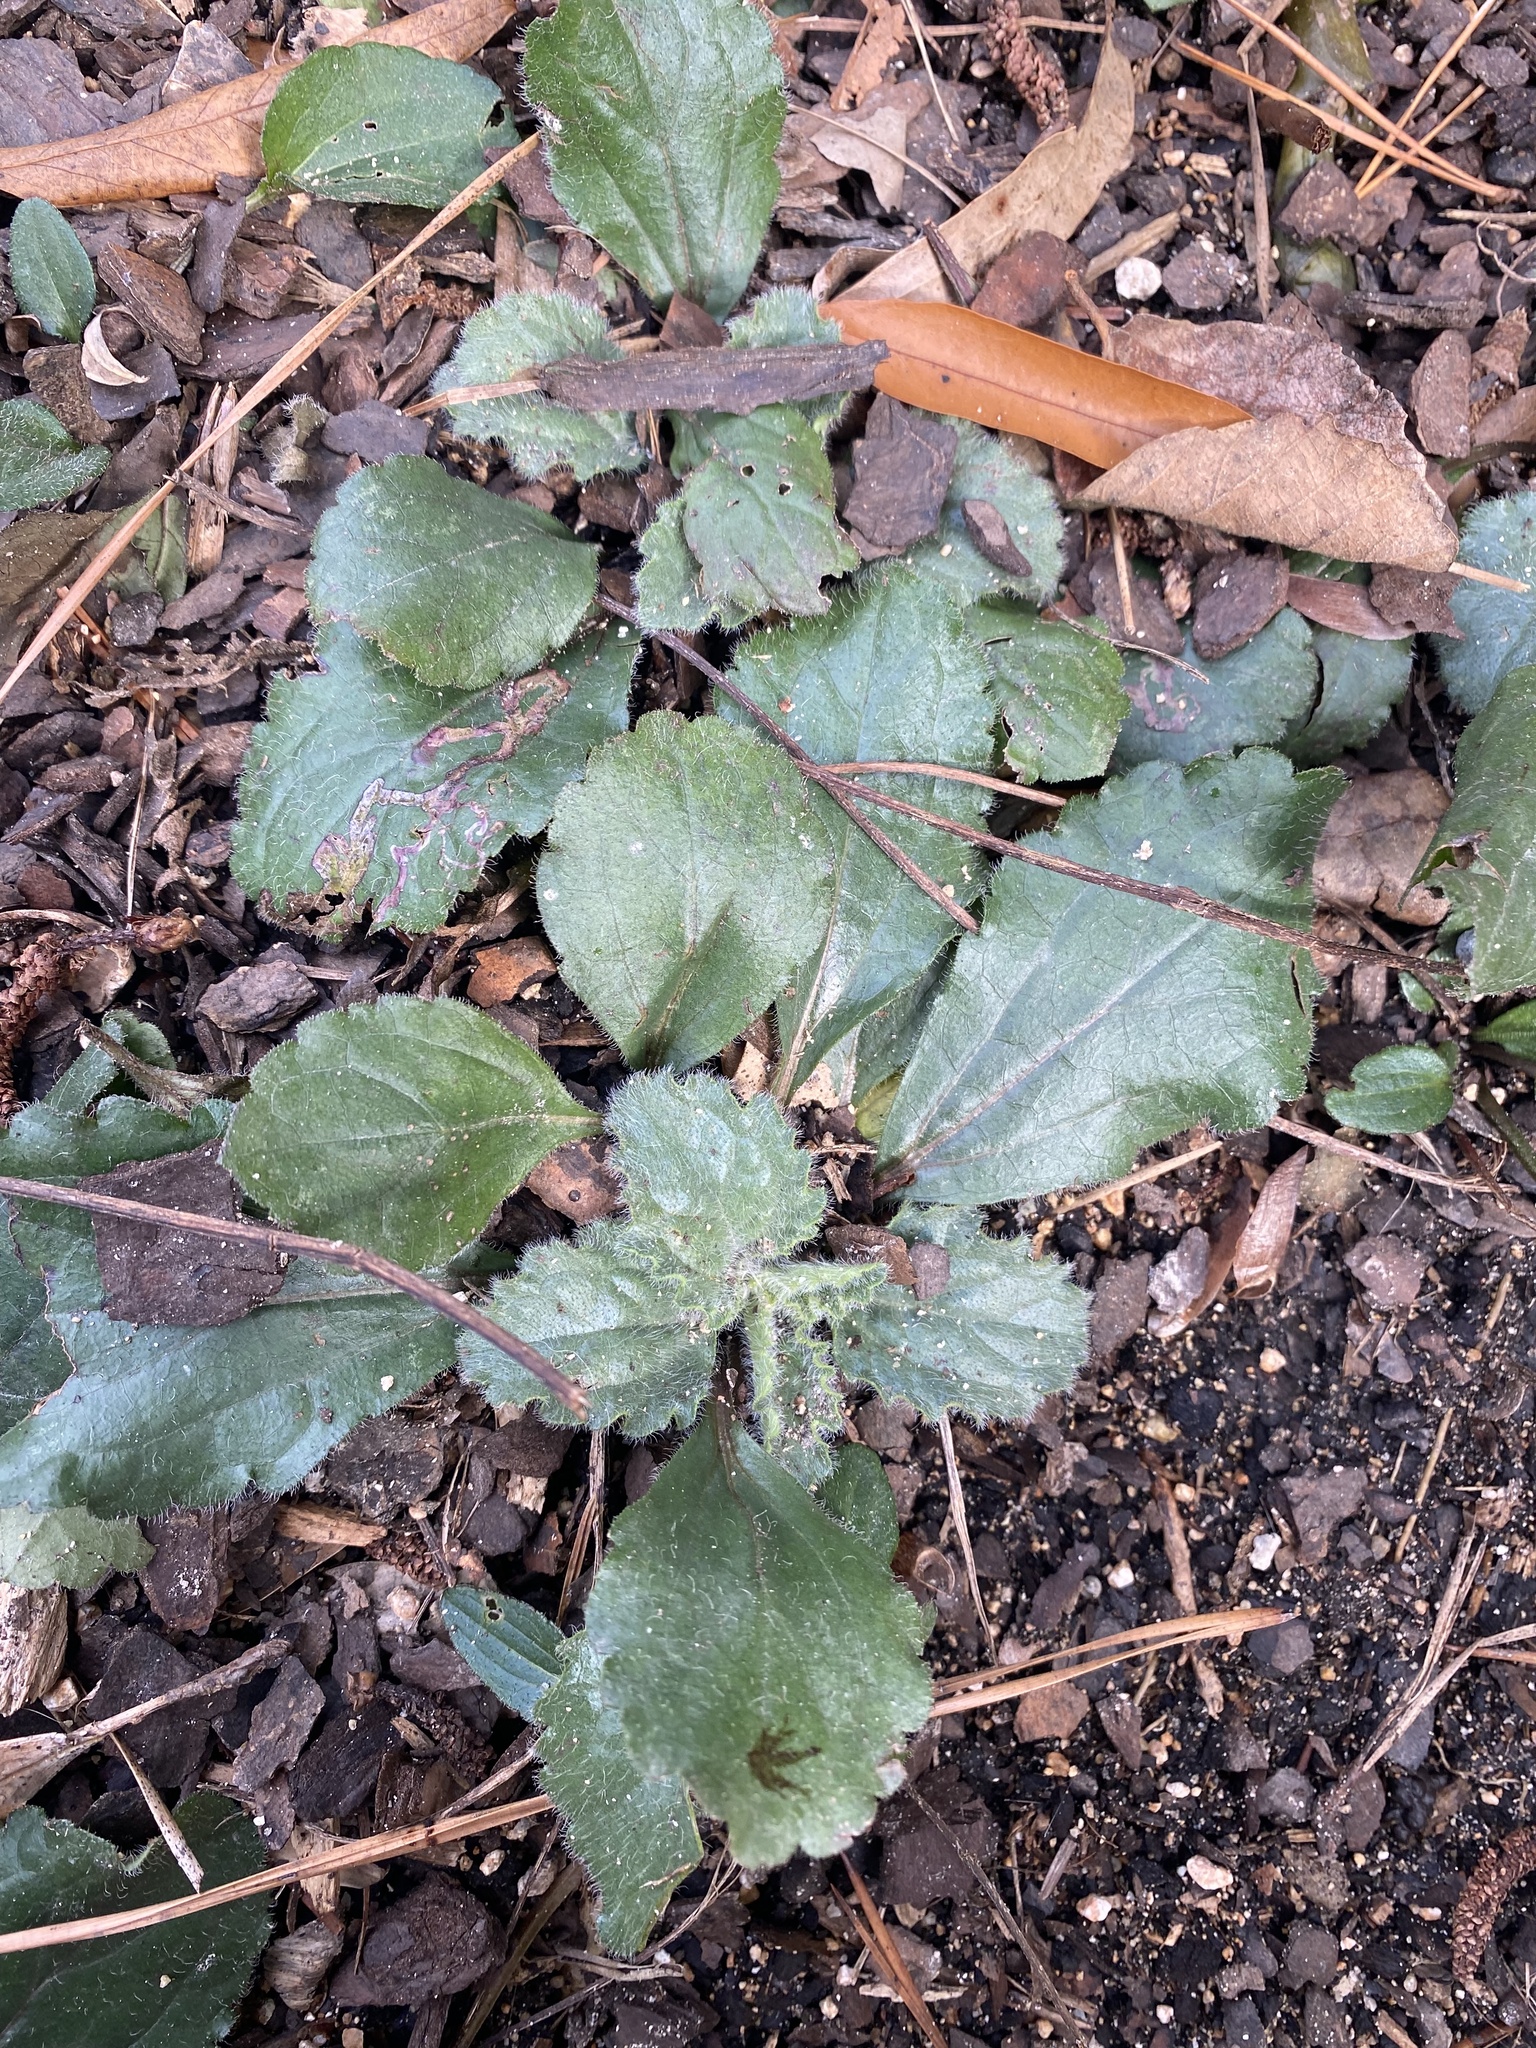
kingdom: Animalia
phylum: Arthropoda
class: Insecta
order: Diptera
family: Agromyzidae
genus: Liriomyza
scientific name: Liriomyza helianthi
